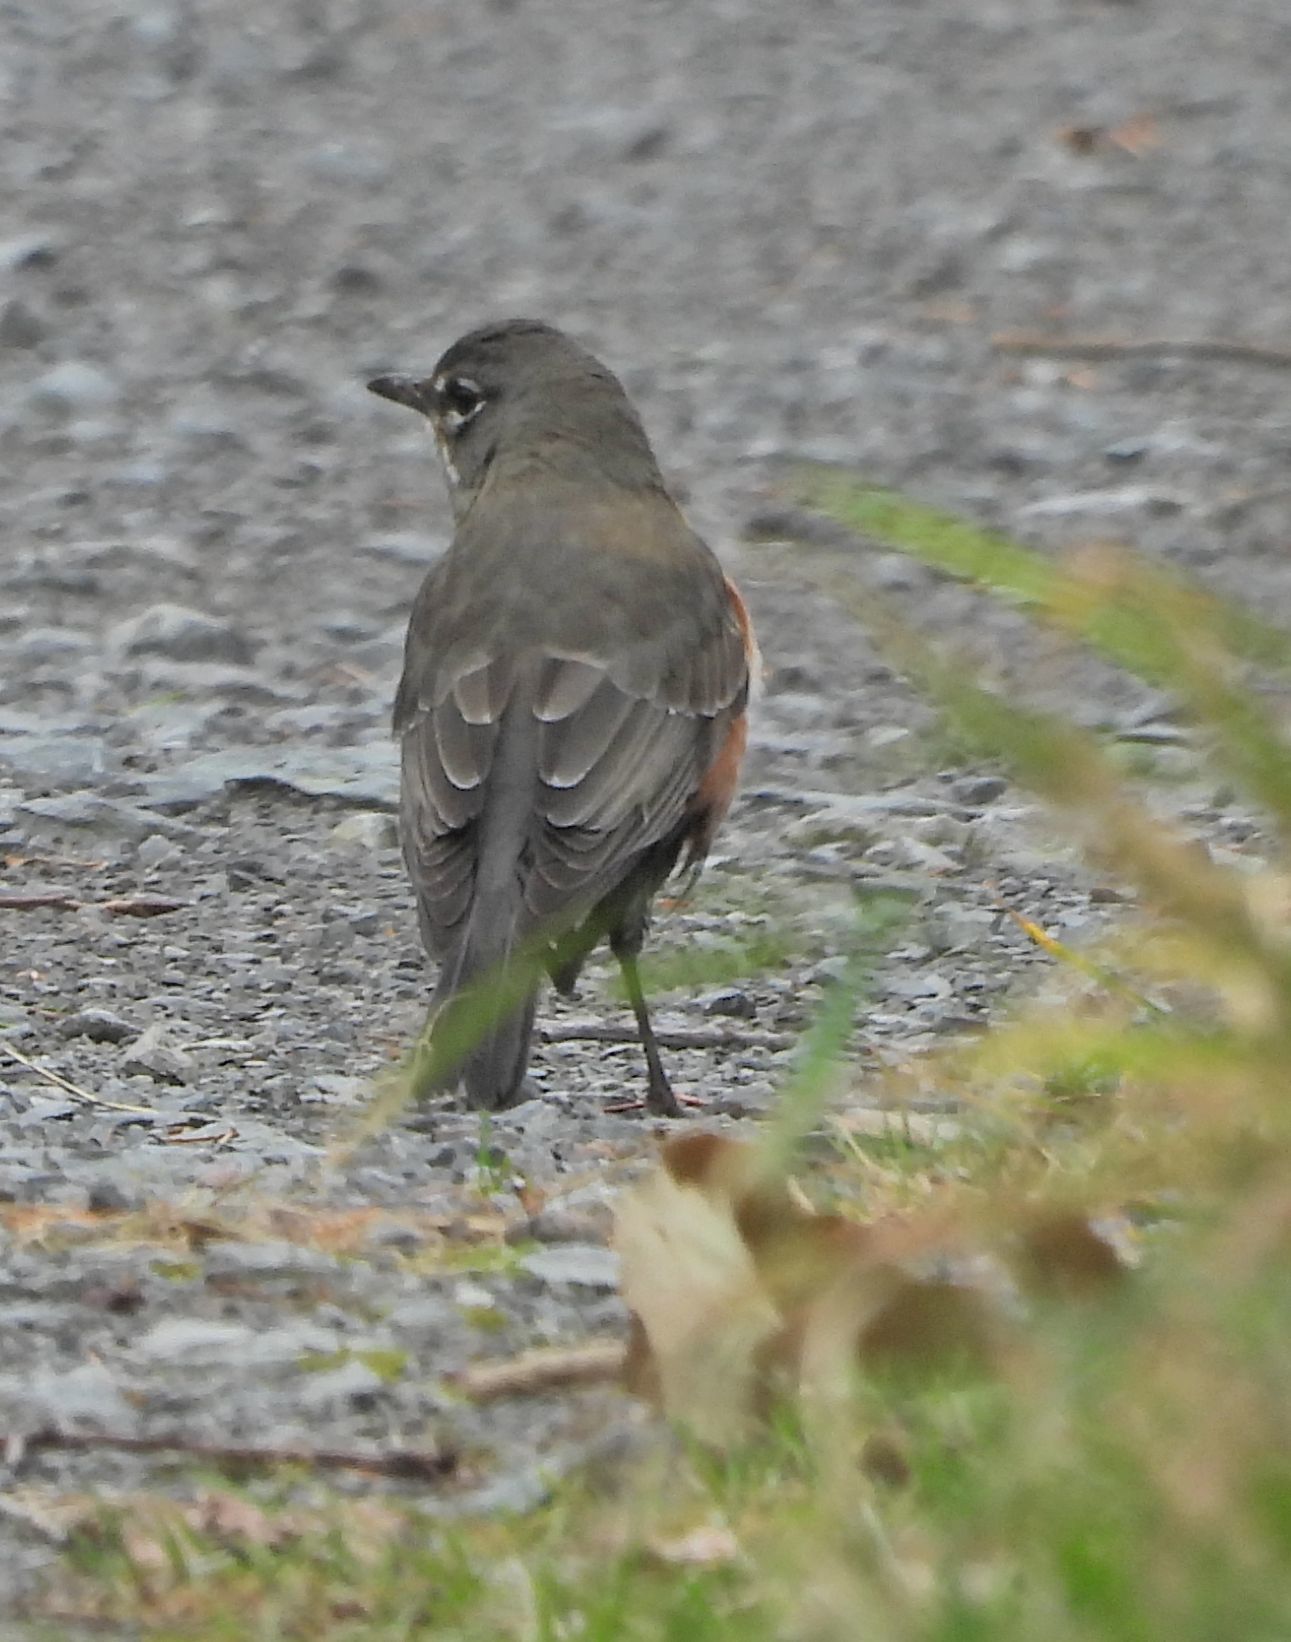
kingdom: Animalia
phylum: Chordata
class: Aves
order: Passeriformes
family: Turdidae
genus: Turdus
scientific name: Turdus migratorius
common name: American robin
